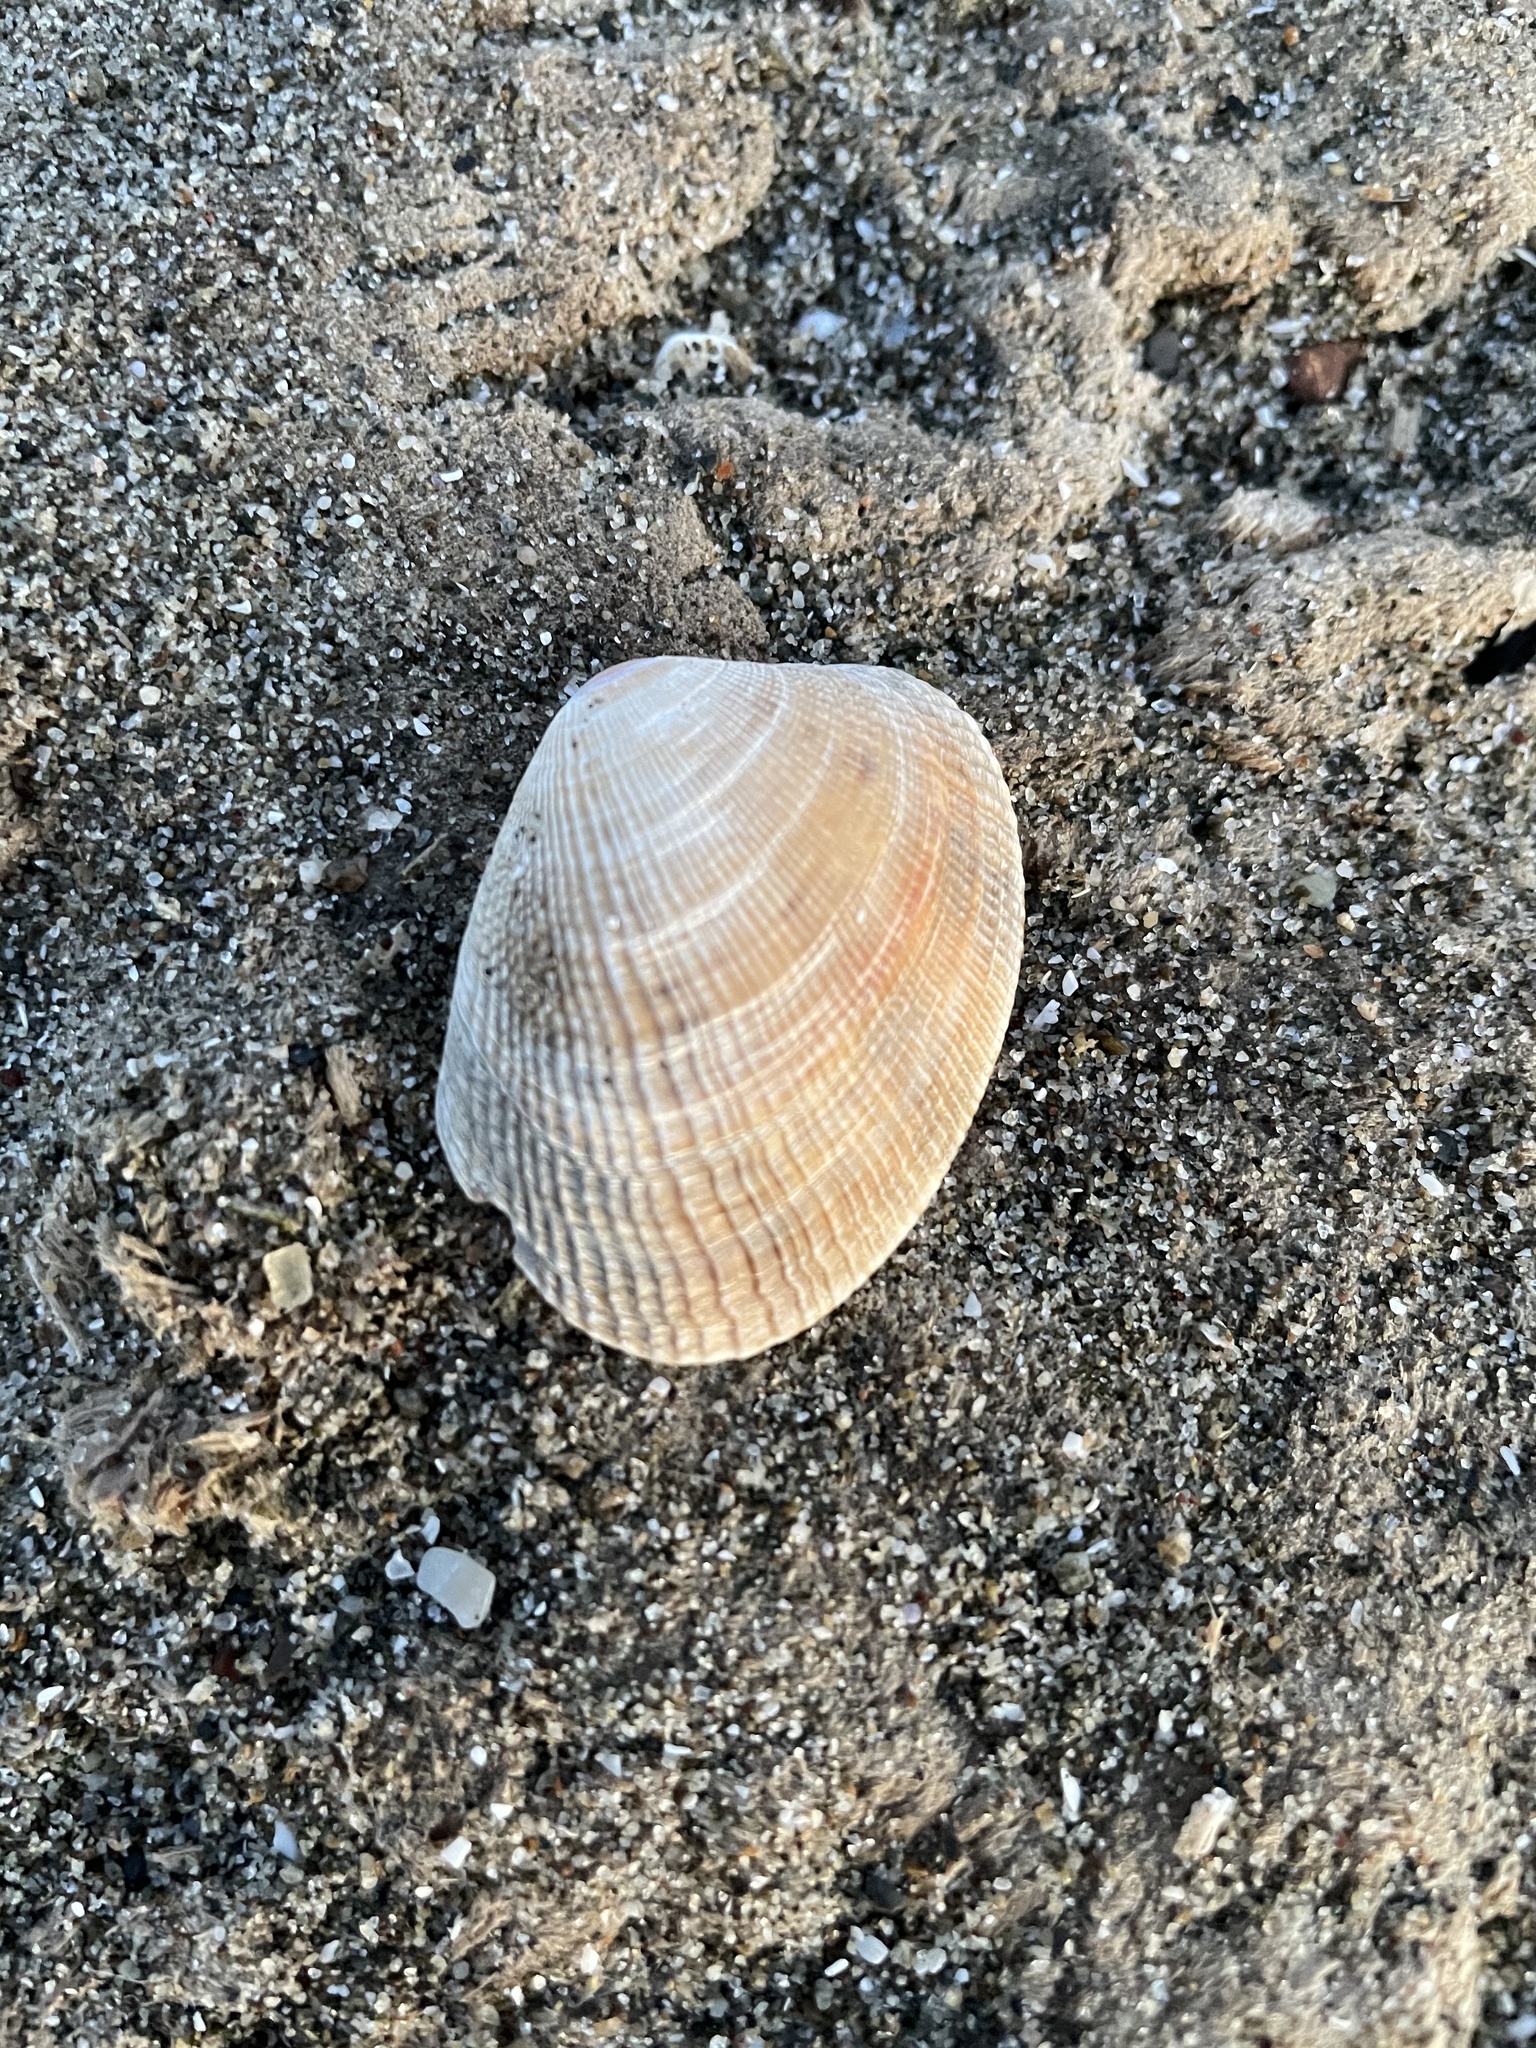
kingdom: Animalia
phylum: Mollusca
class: Bivalvia
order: Venerida
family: Veneridae
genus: Ruditapes
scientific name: Ruditapes philippinarum
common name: Manila clam
